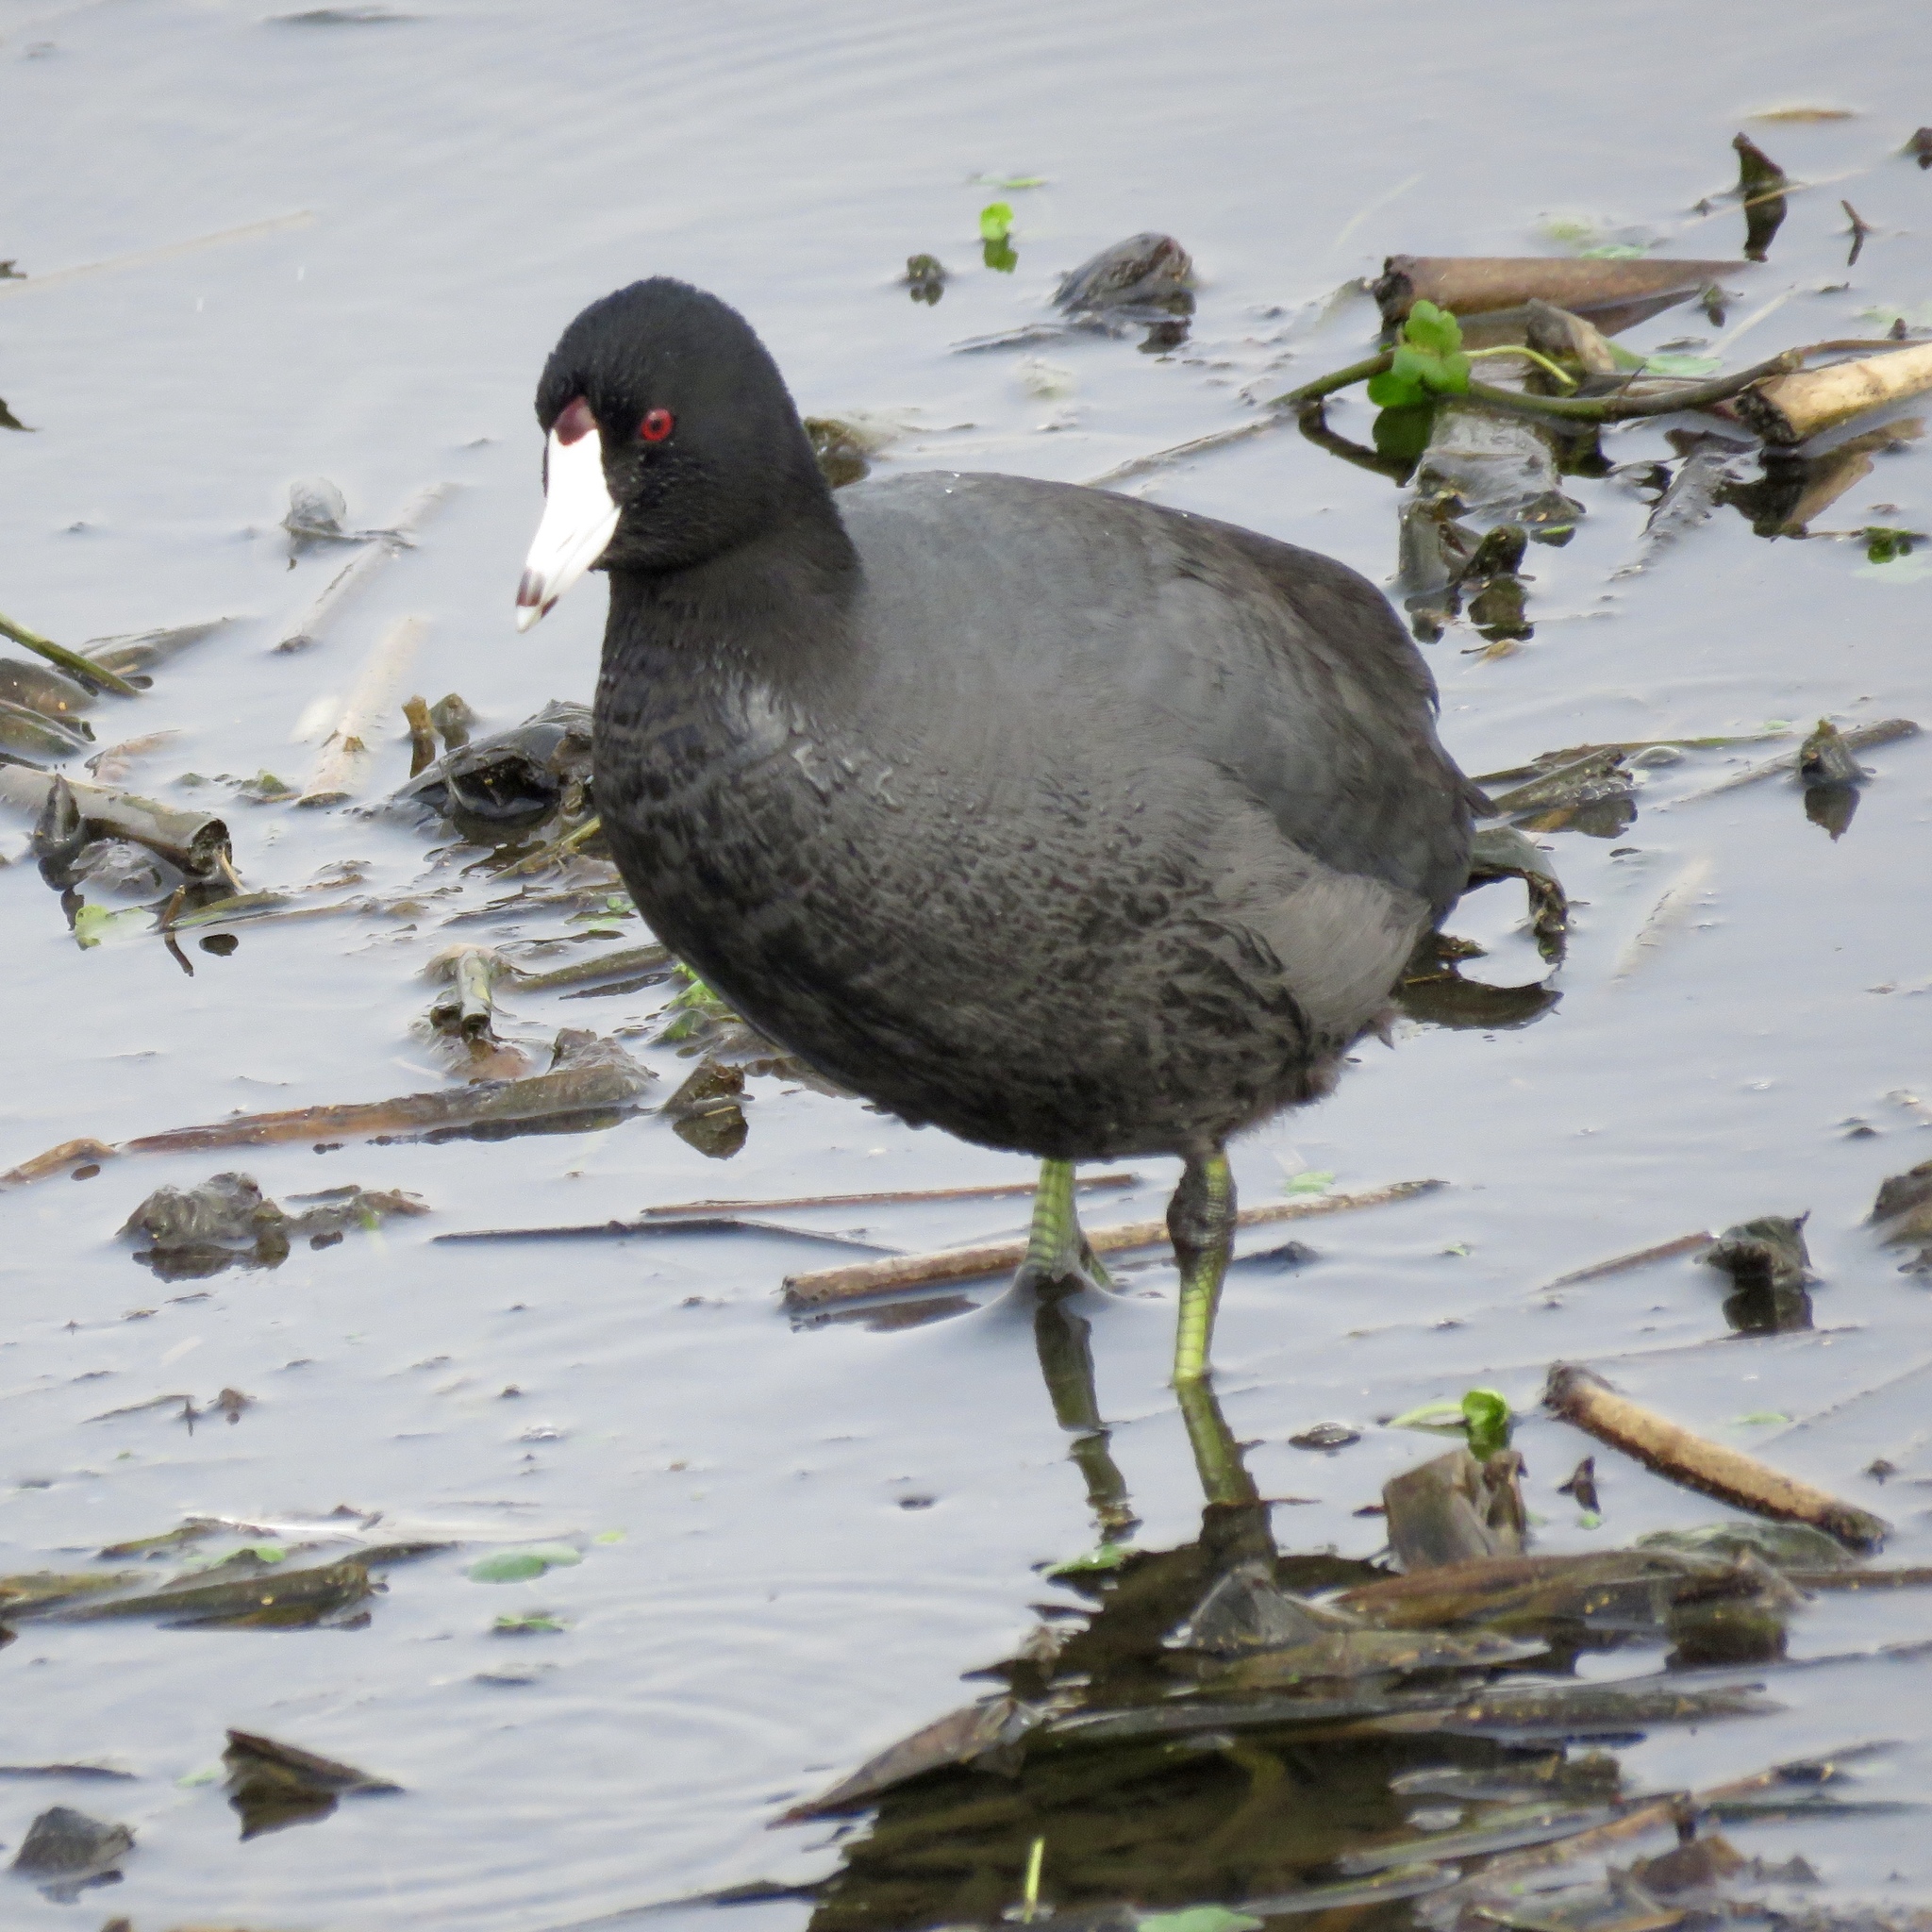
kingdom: Animalia
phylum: Chordata
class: Aves
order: Gruiformes
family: Rallidae
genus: Fulica
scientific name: Fulica americana
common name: American coot
